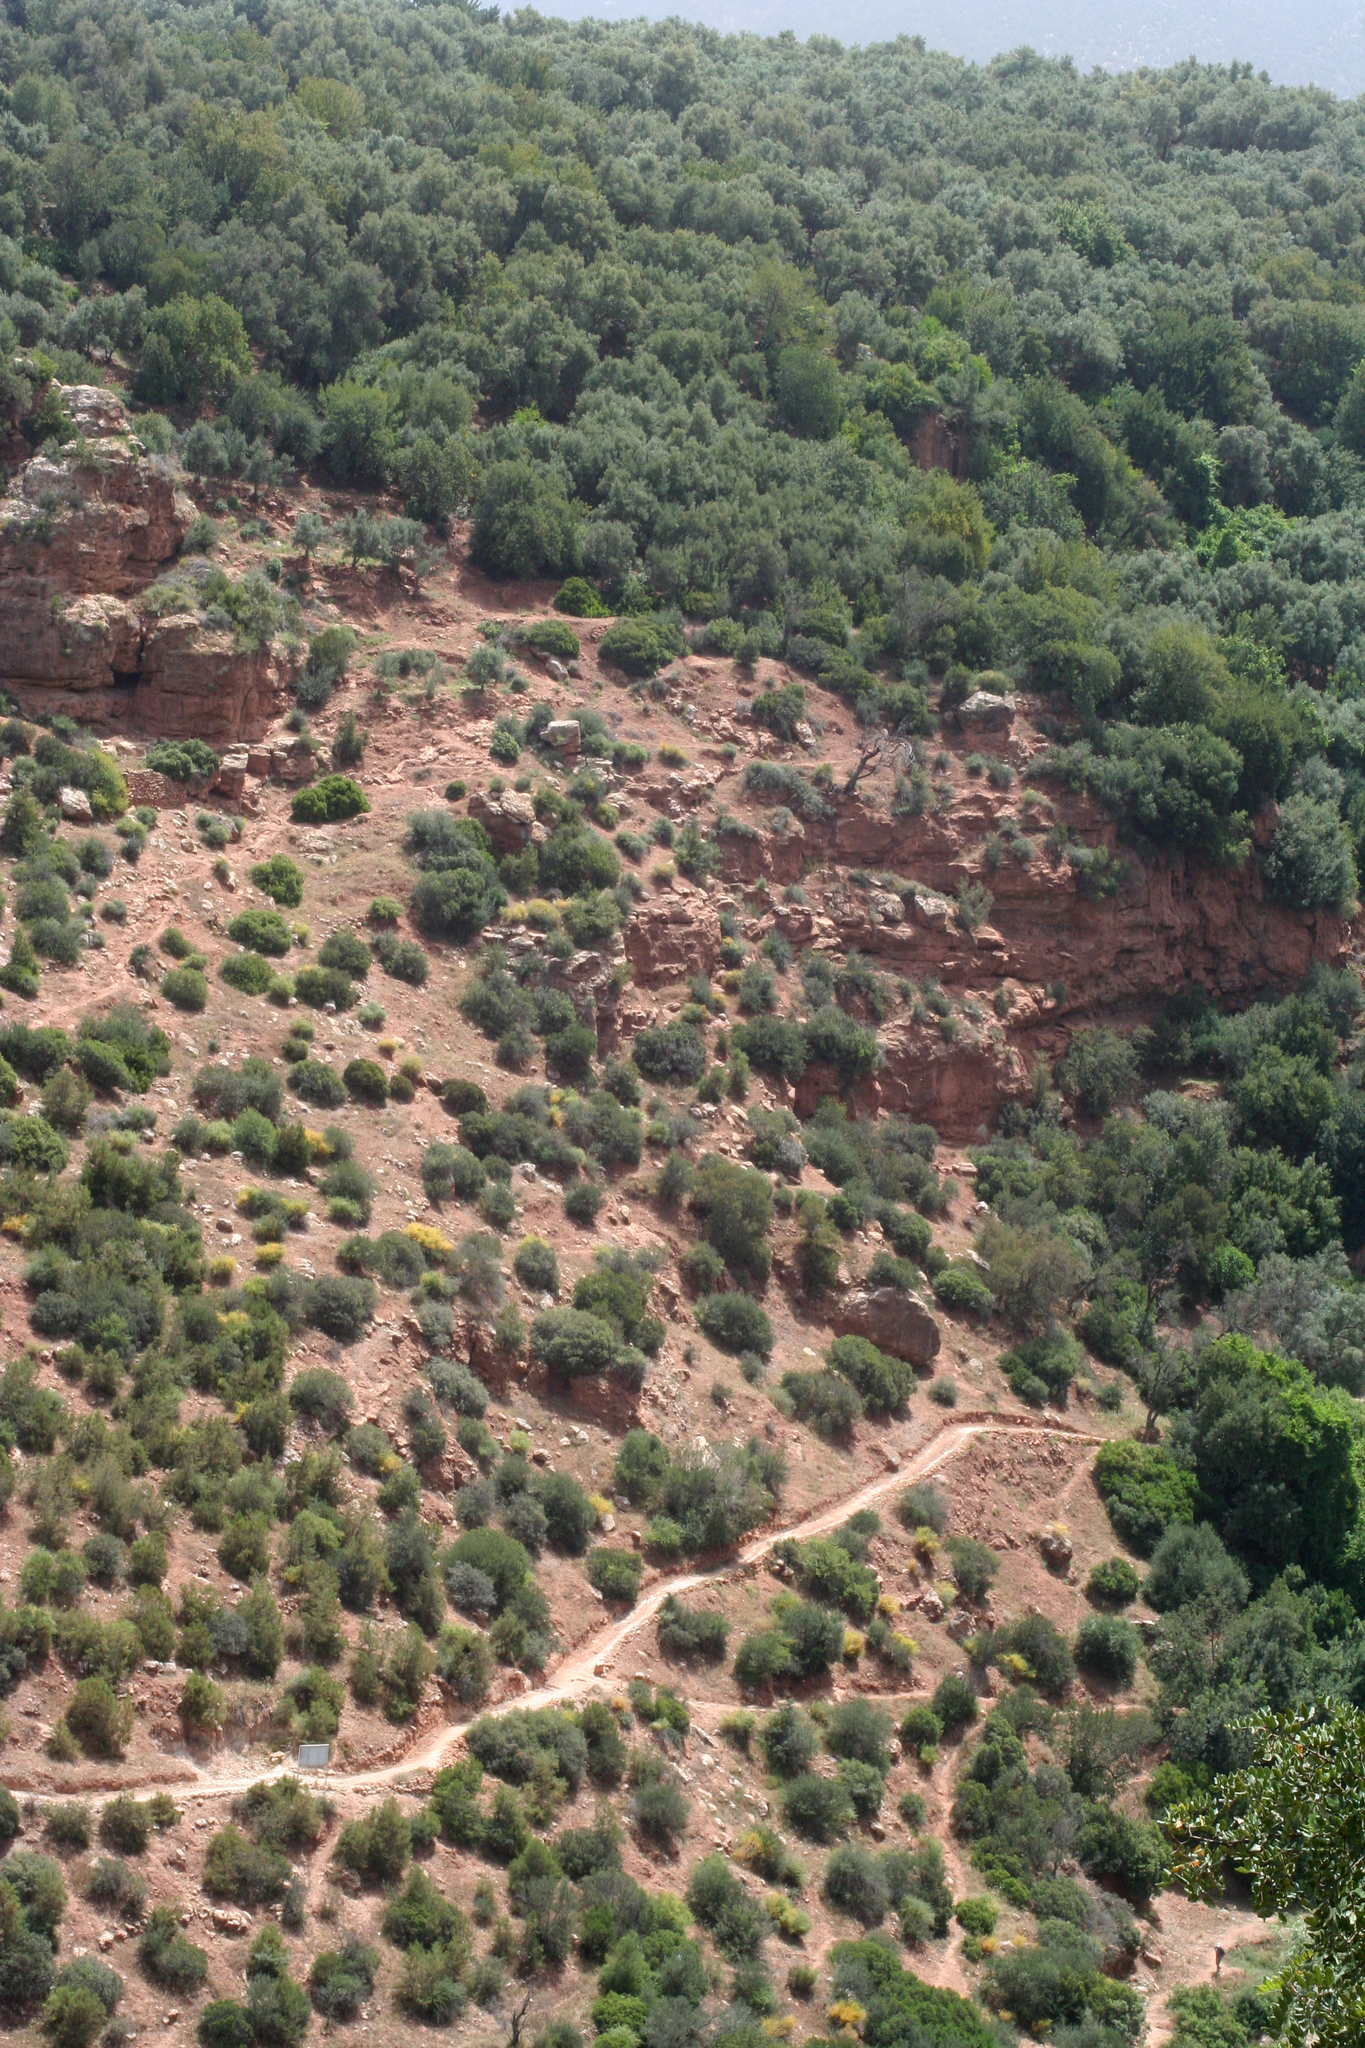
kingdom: Plantae
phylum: Tracheophyta
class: Pinopsida
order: Pinales
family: Cupressaceae
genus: Tetraclinis
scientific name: Tetraclinis articulata
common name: Sandarac
